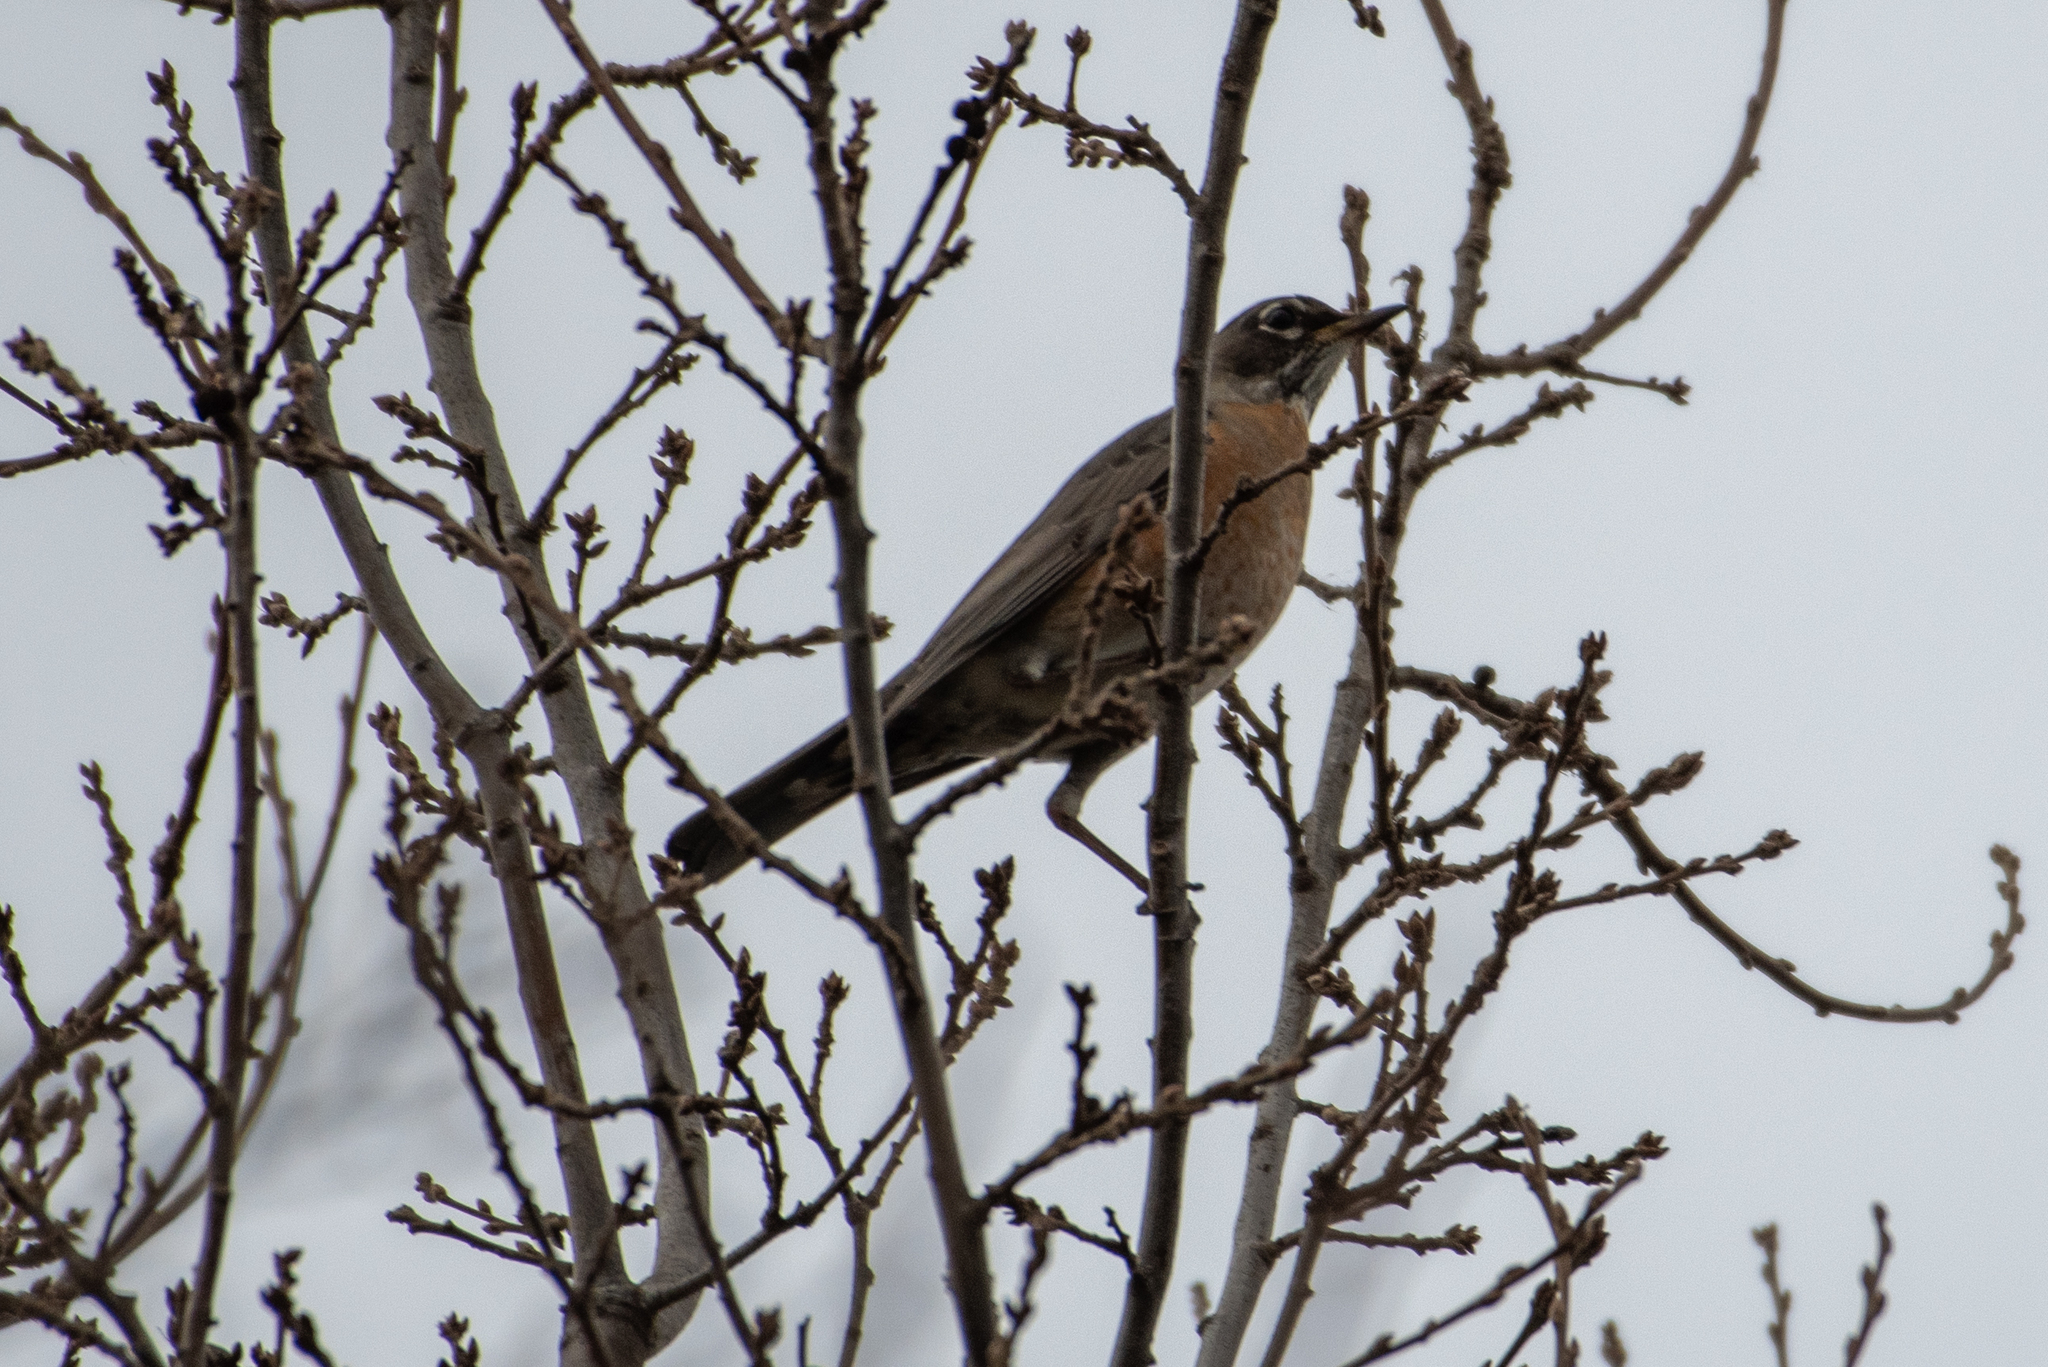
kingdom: Animalia
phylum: Chordata
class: Aves
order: Passeriformes
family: Turdidae
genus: Turdus
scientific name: Turdus migratorius
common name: American robin
